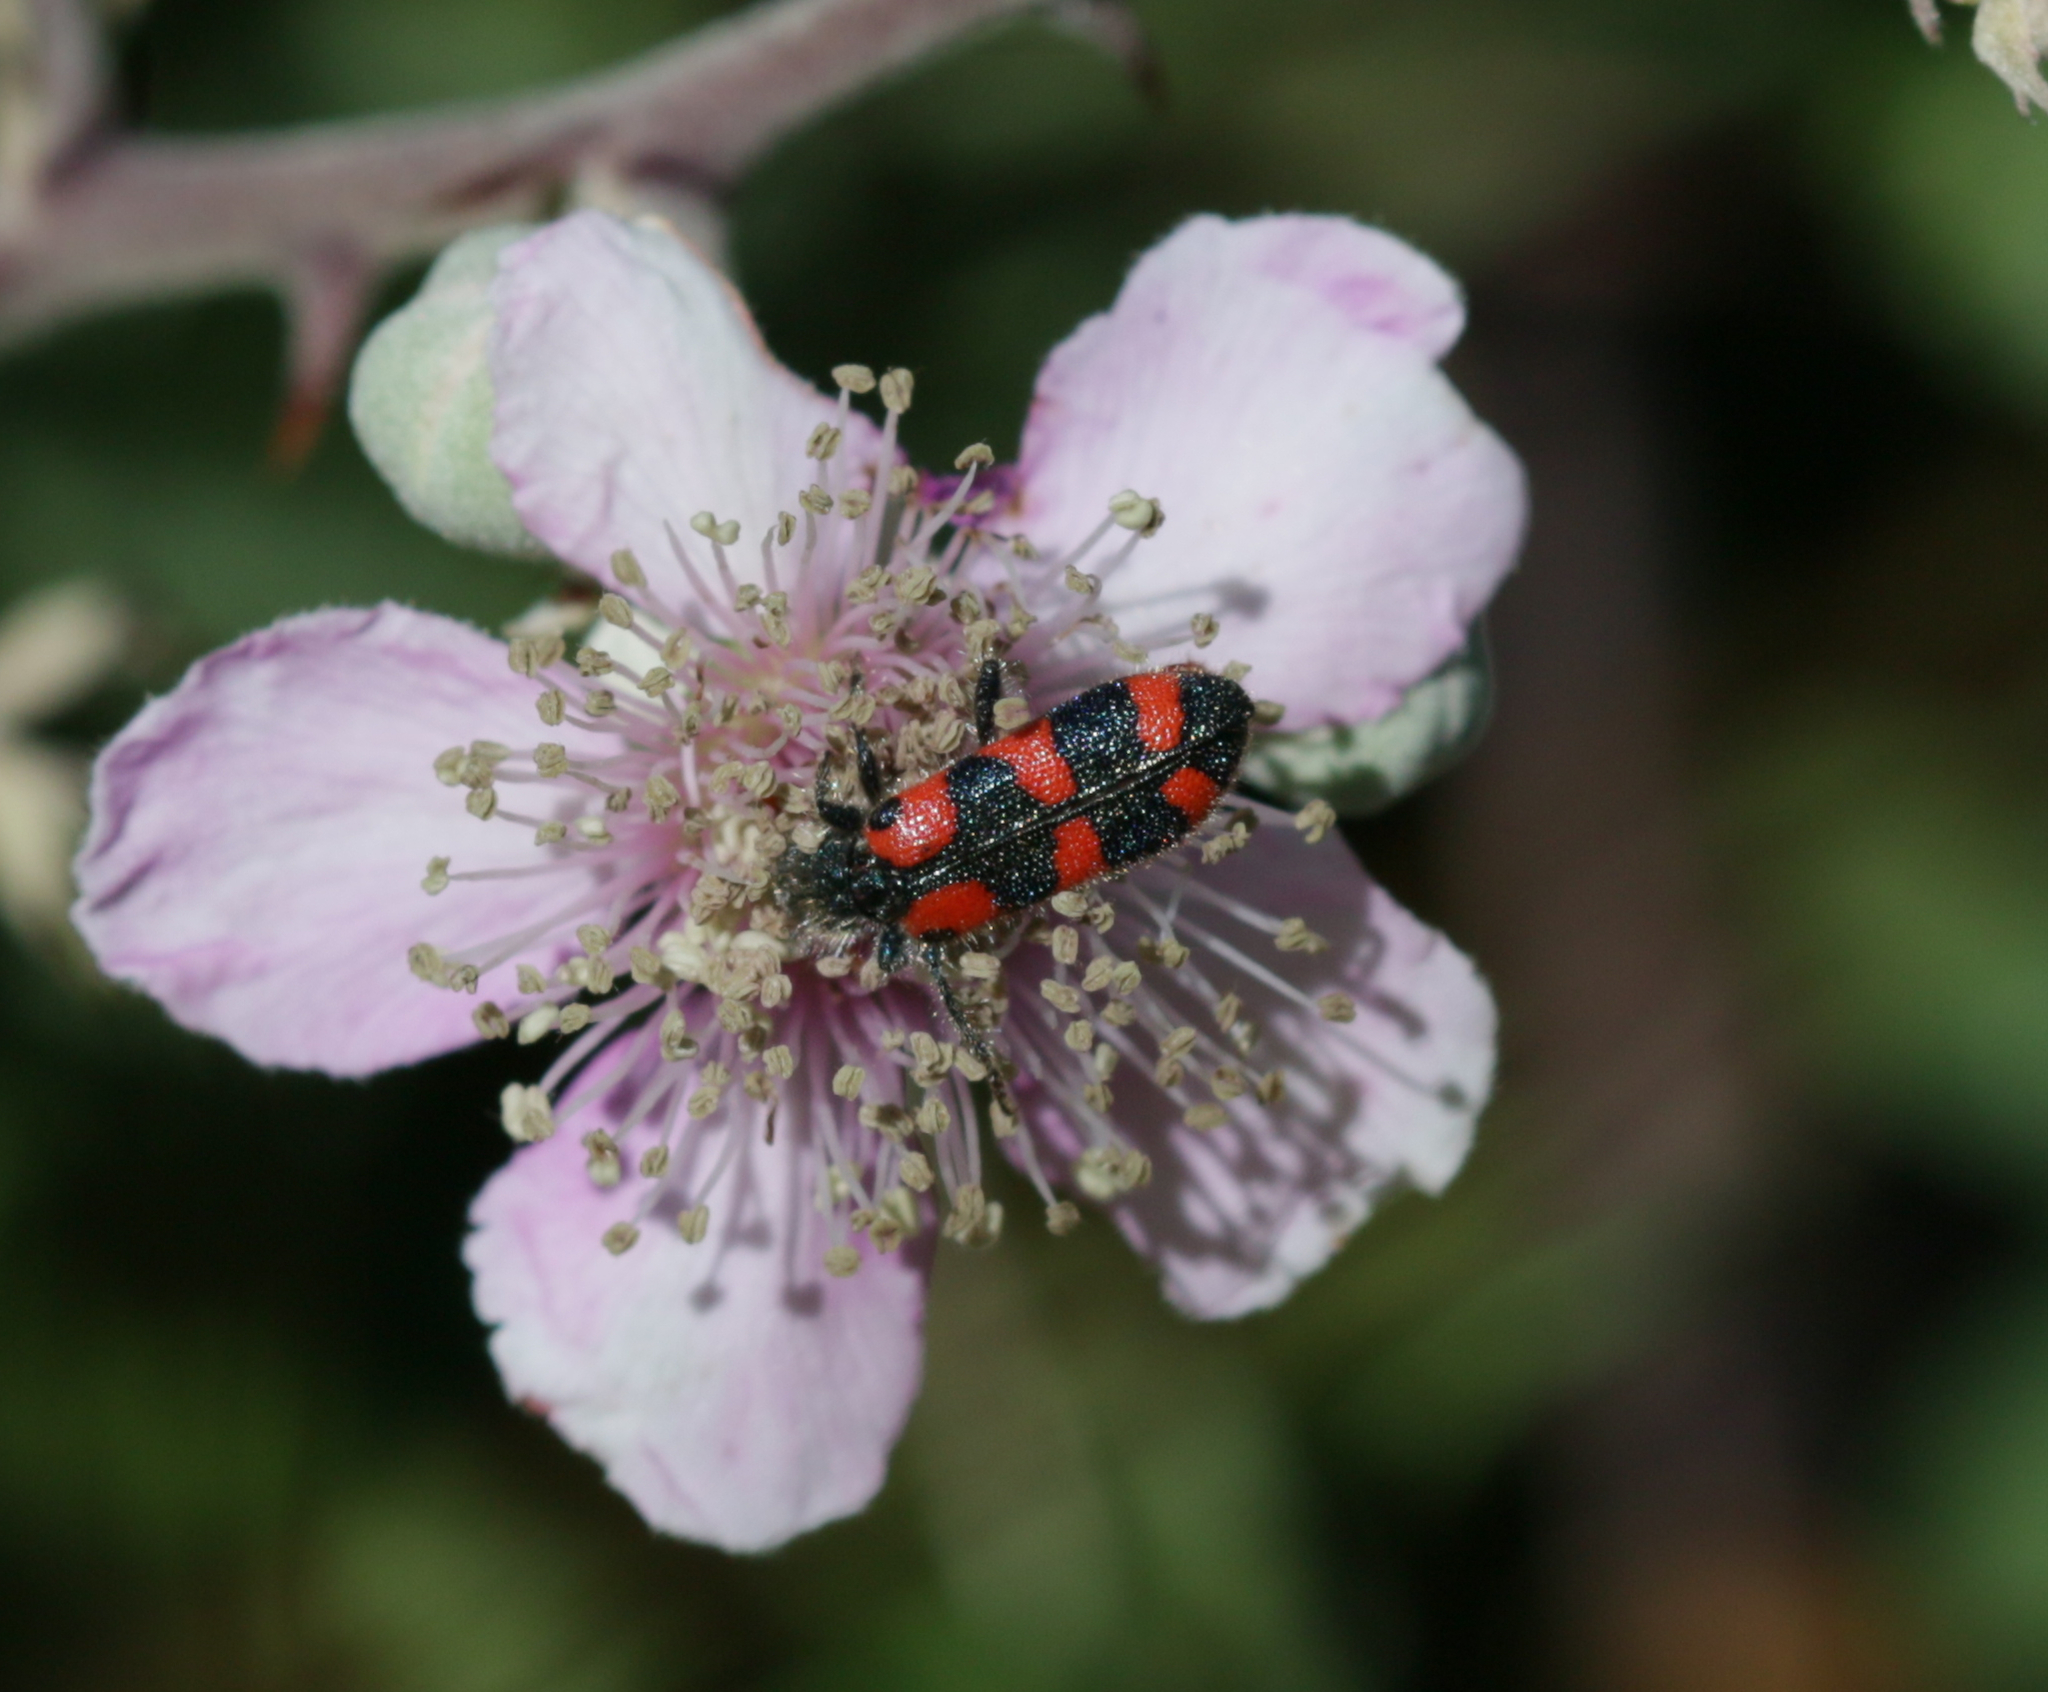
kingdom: Animalia
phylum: Arthropoda
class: Insecta
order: Coleoptera
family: Cleridae
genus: Trichodes
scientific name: Trichodes leucopsideus
